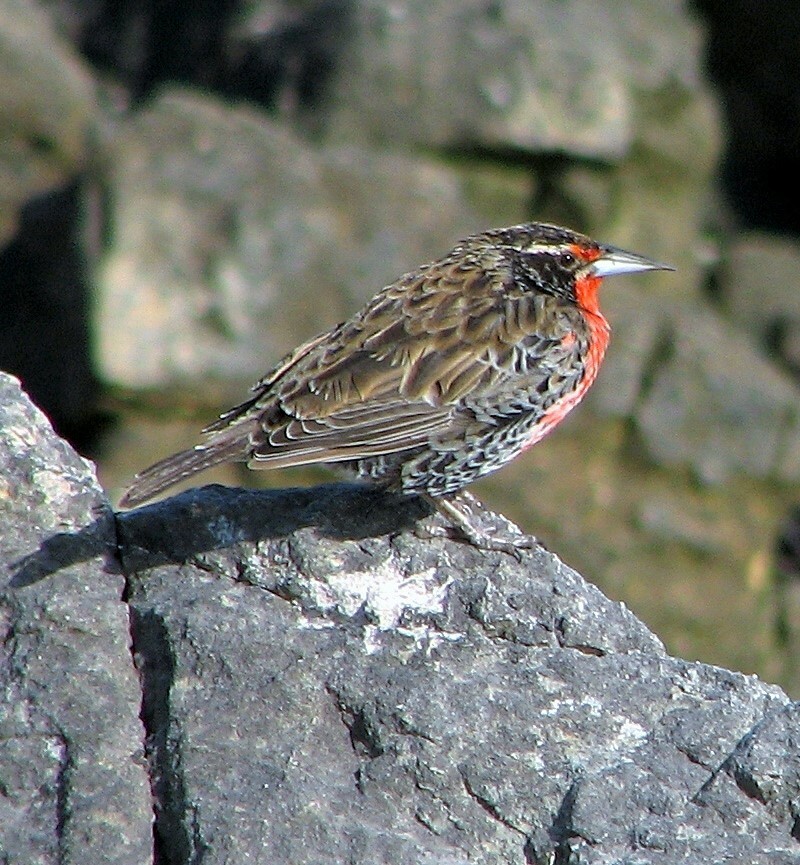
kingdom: Animalia
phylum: Chordata
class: Aves
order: Passeriformes
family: Icteridae
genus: Sturnella
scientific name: Sturnella loyca
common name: Long-tailed meadowlark
